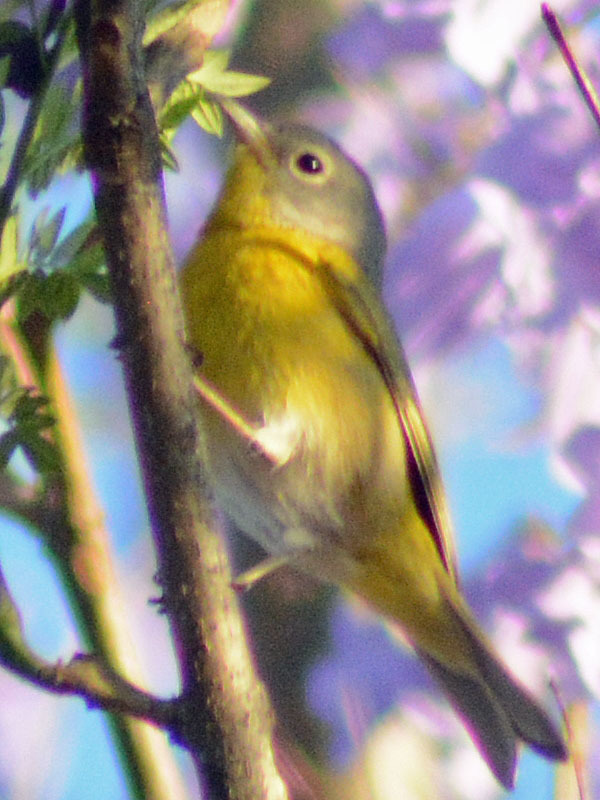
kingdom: Animalia
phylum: Chordata
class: Aves
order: Passeriformes
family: Parulidae
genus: Leiothlypis
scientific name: Leiothlypis ruficapilla
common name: Nashville warbler
